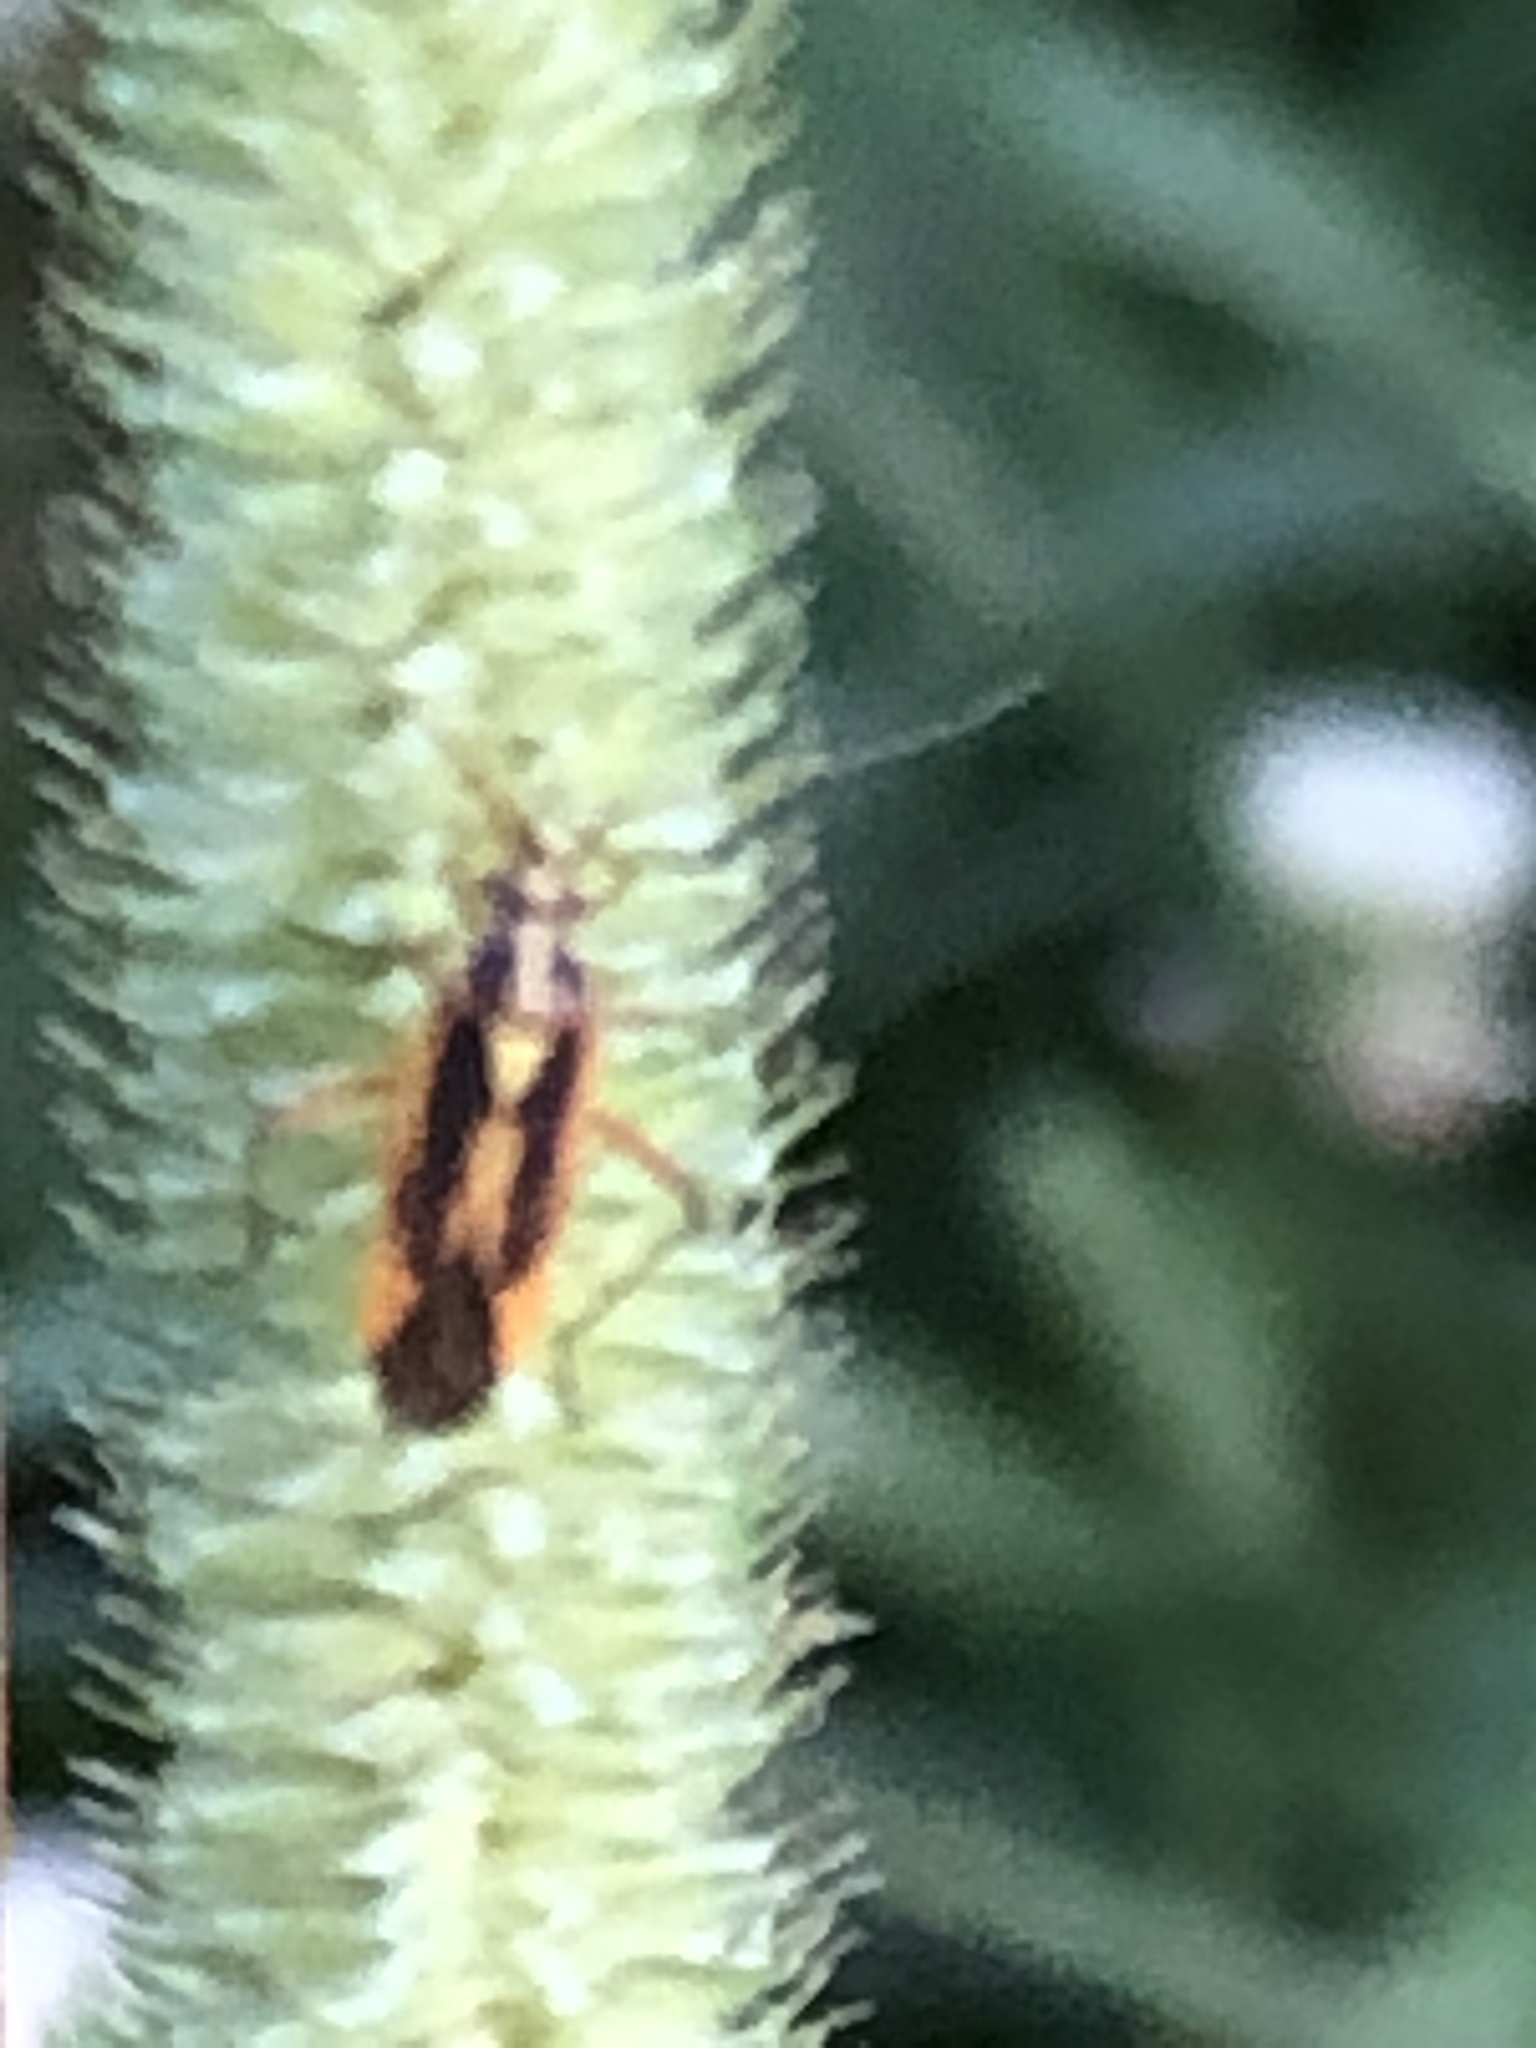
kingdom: Animalia
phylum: Arthropoda
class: Insecta
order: Hemiptera
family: Miridae
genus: Stenotus
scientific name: Stenotus binotatus
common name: Plant bug
